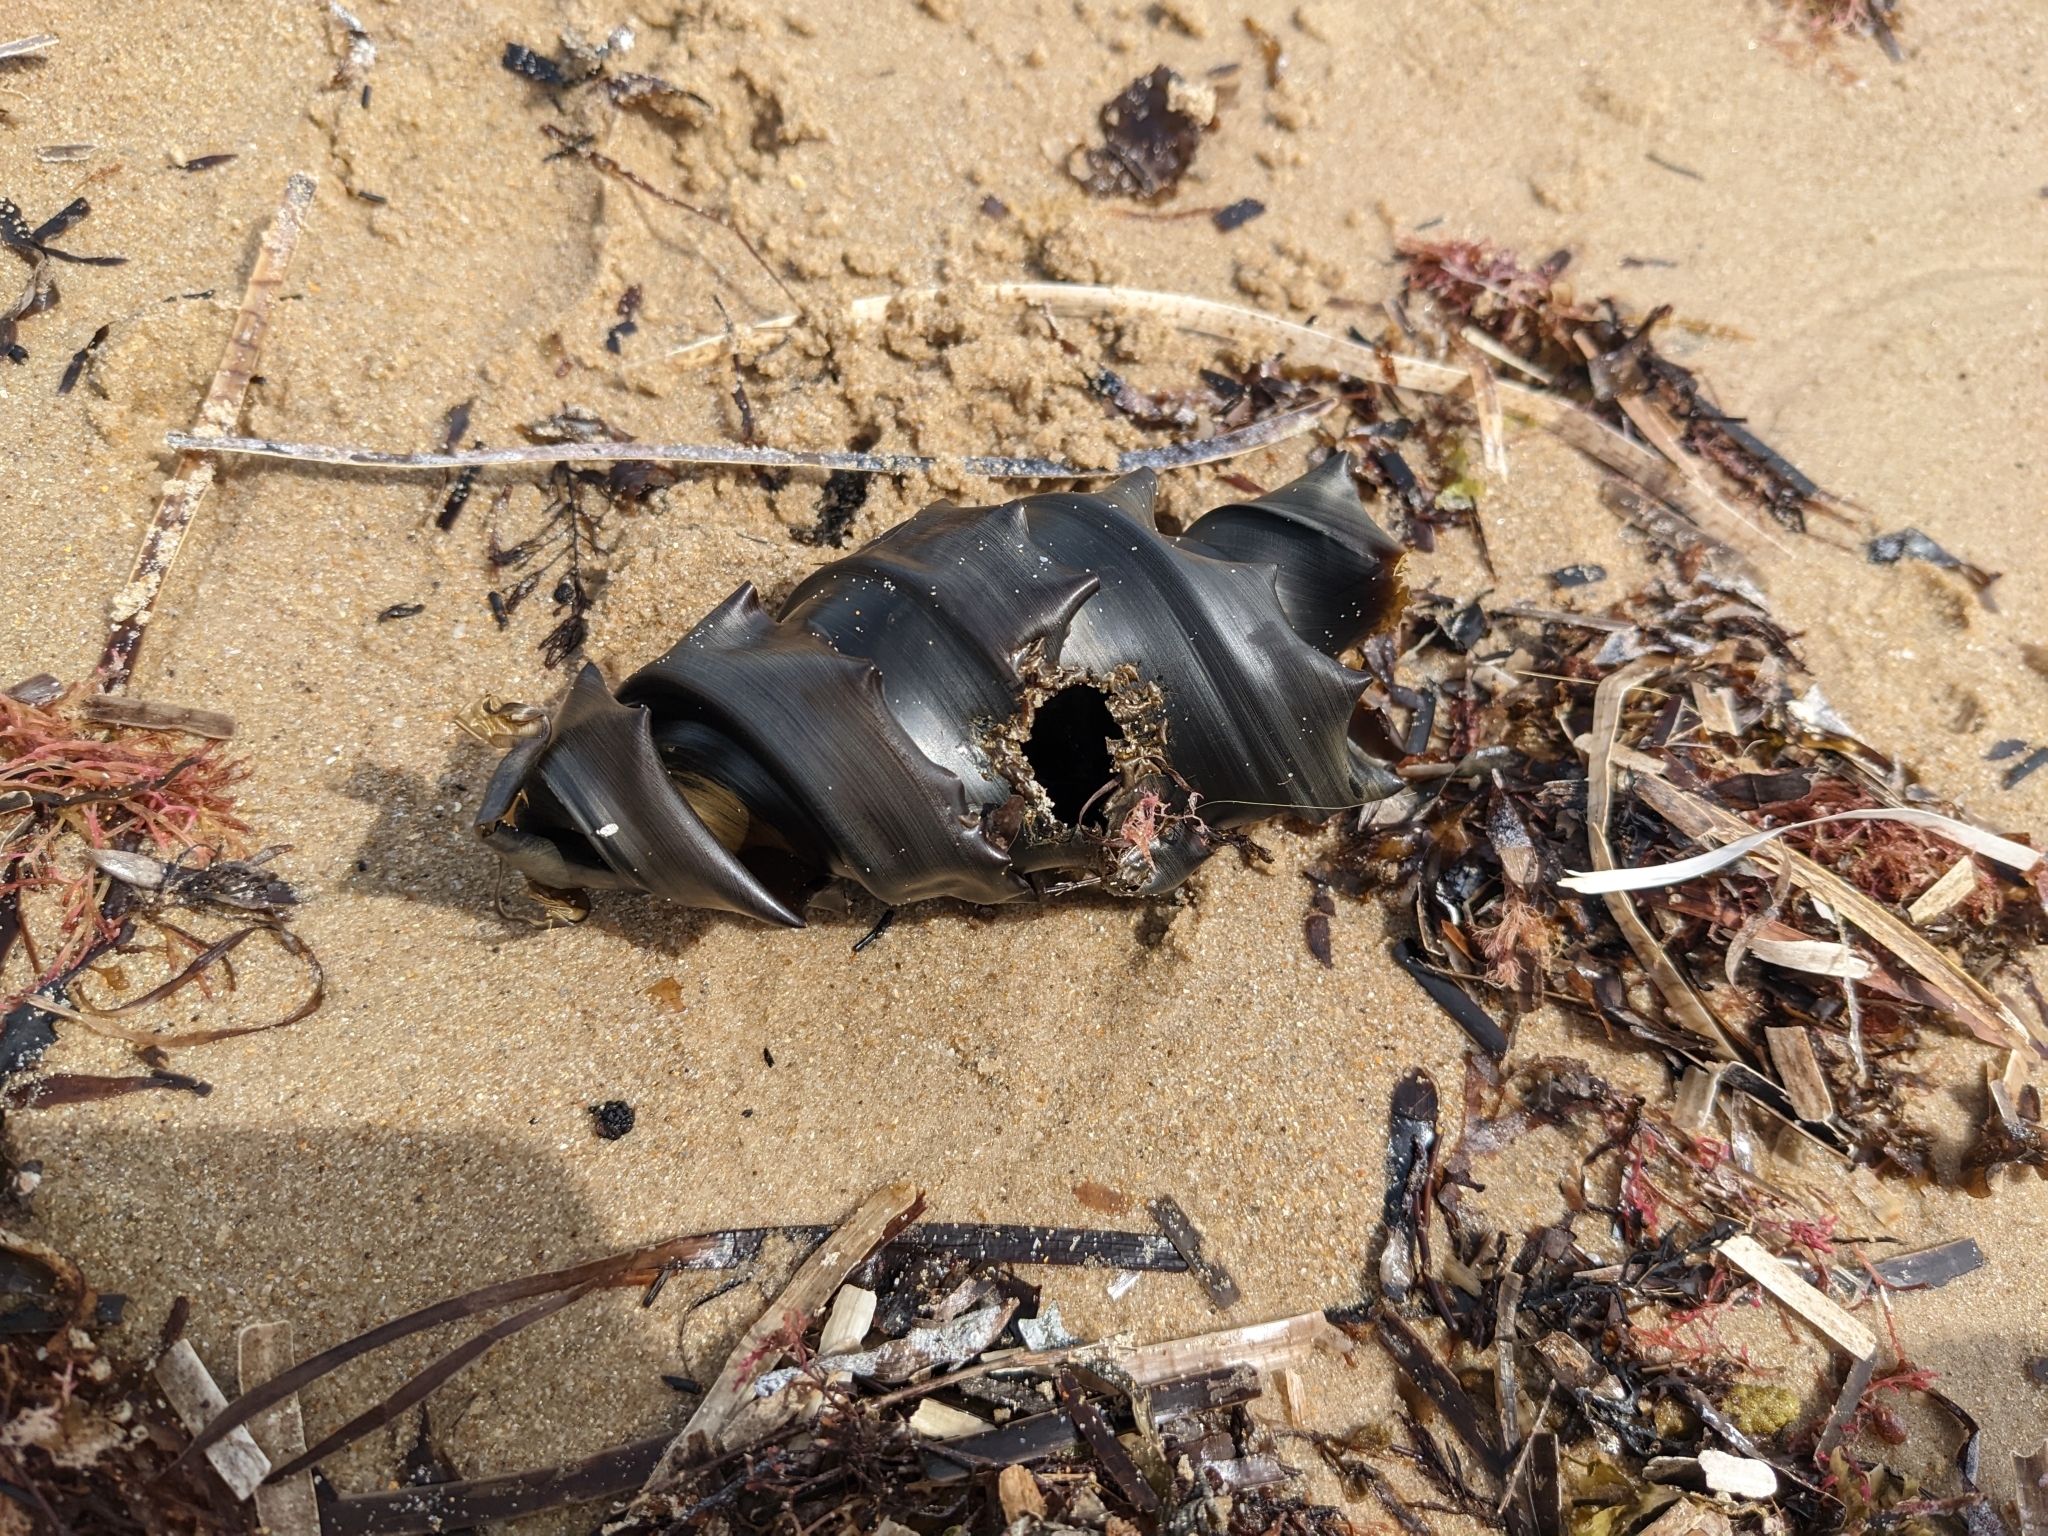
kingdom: Animalia
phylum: Chordata
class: Elasmobranchii
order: Heterodontiformes
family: Heterodontidae
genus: Heterodontus
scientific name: Heterodontus portusjacksoni
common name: Port jackson shark
